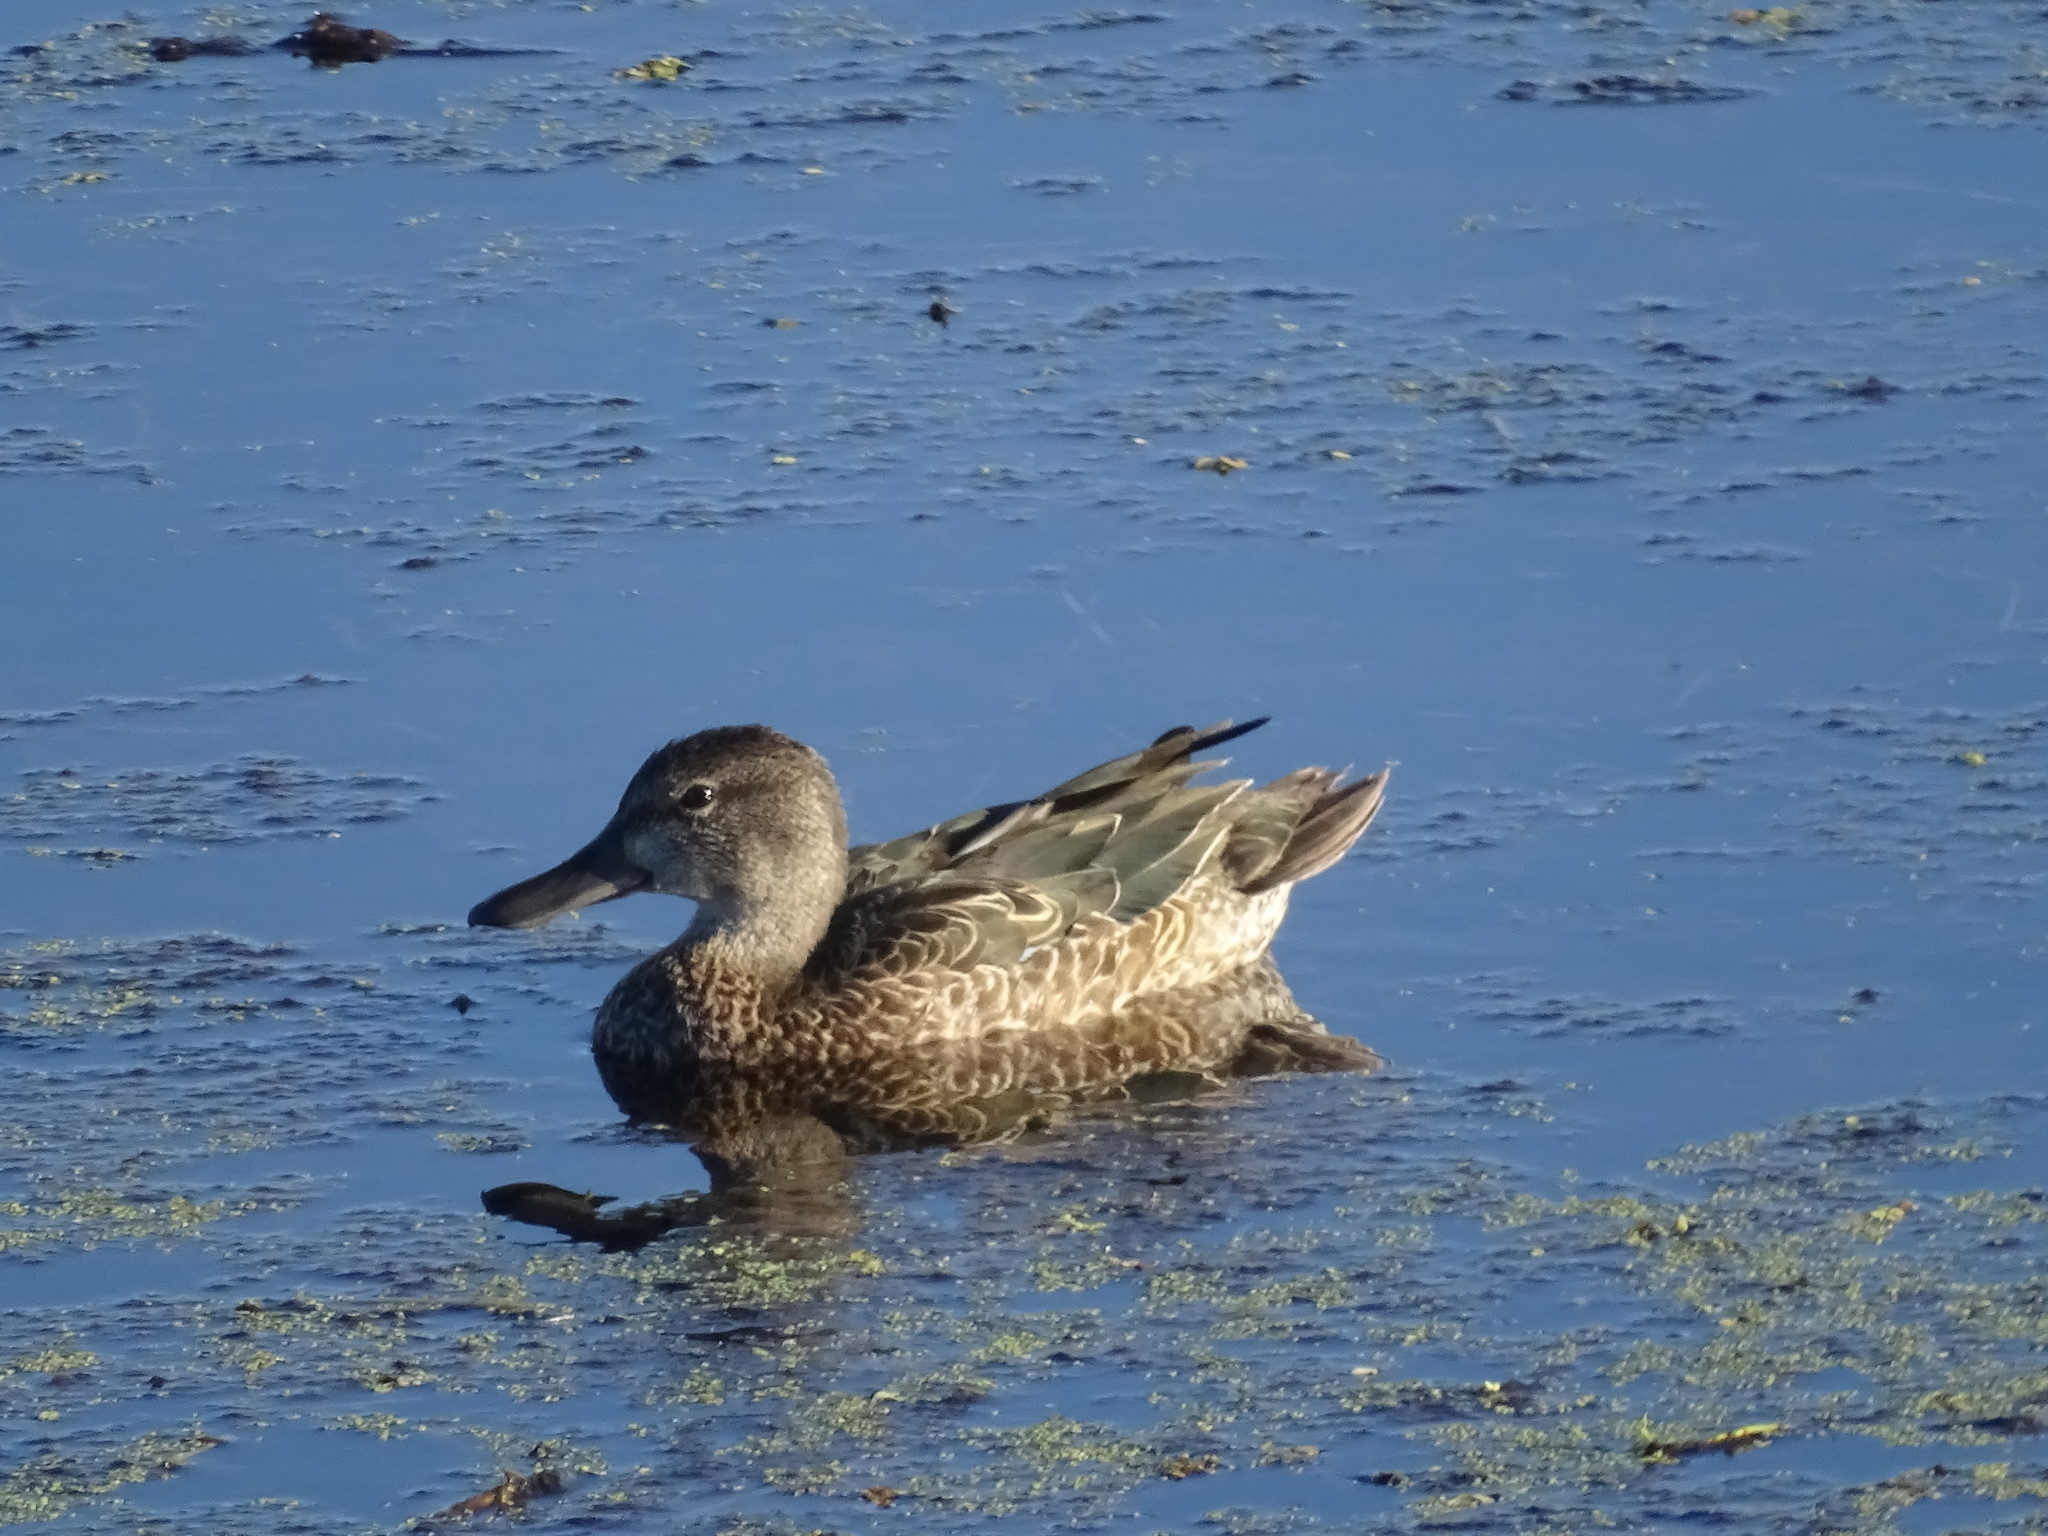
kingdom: Animalia
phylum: Chordata
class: Aves
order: Anseriformes
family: Anatidae
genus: Spatula
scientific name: Spatula discors
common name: Blue-winged teal
